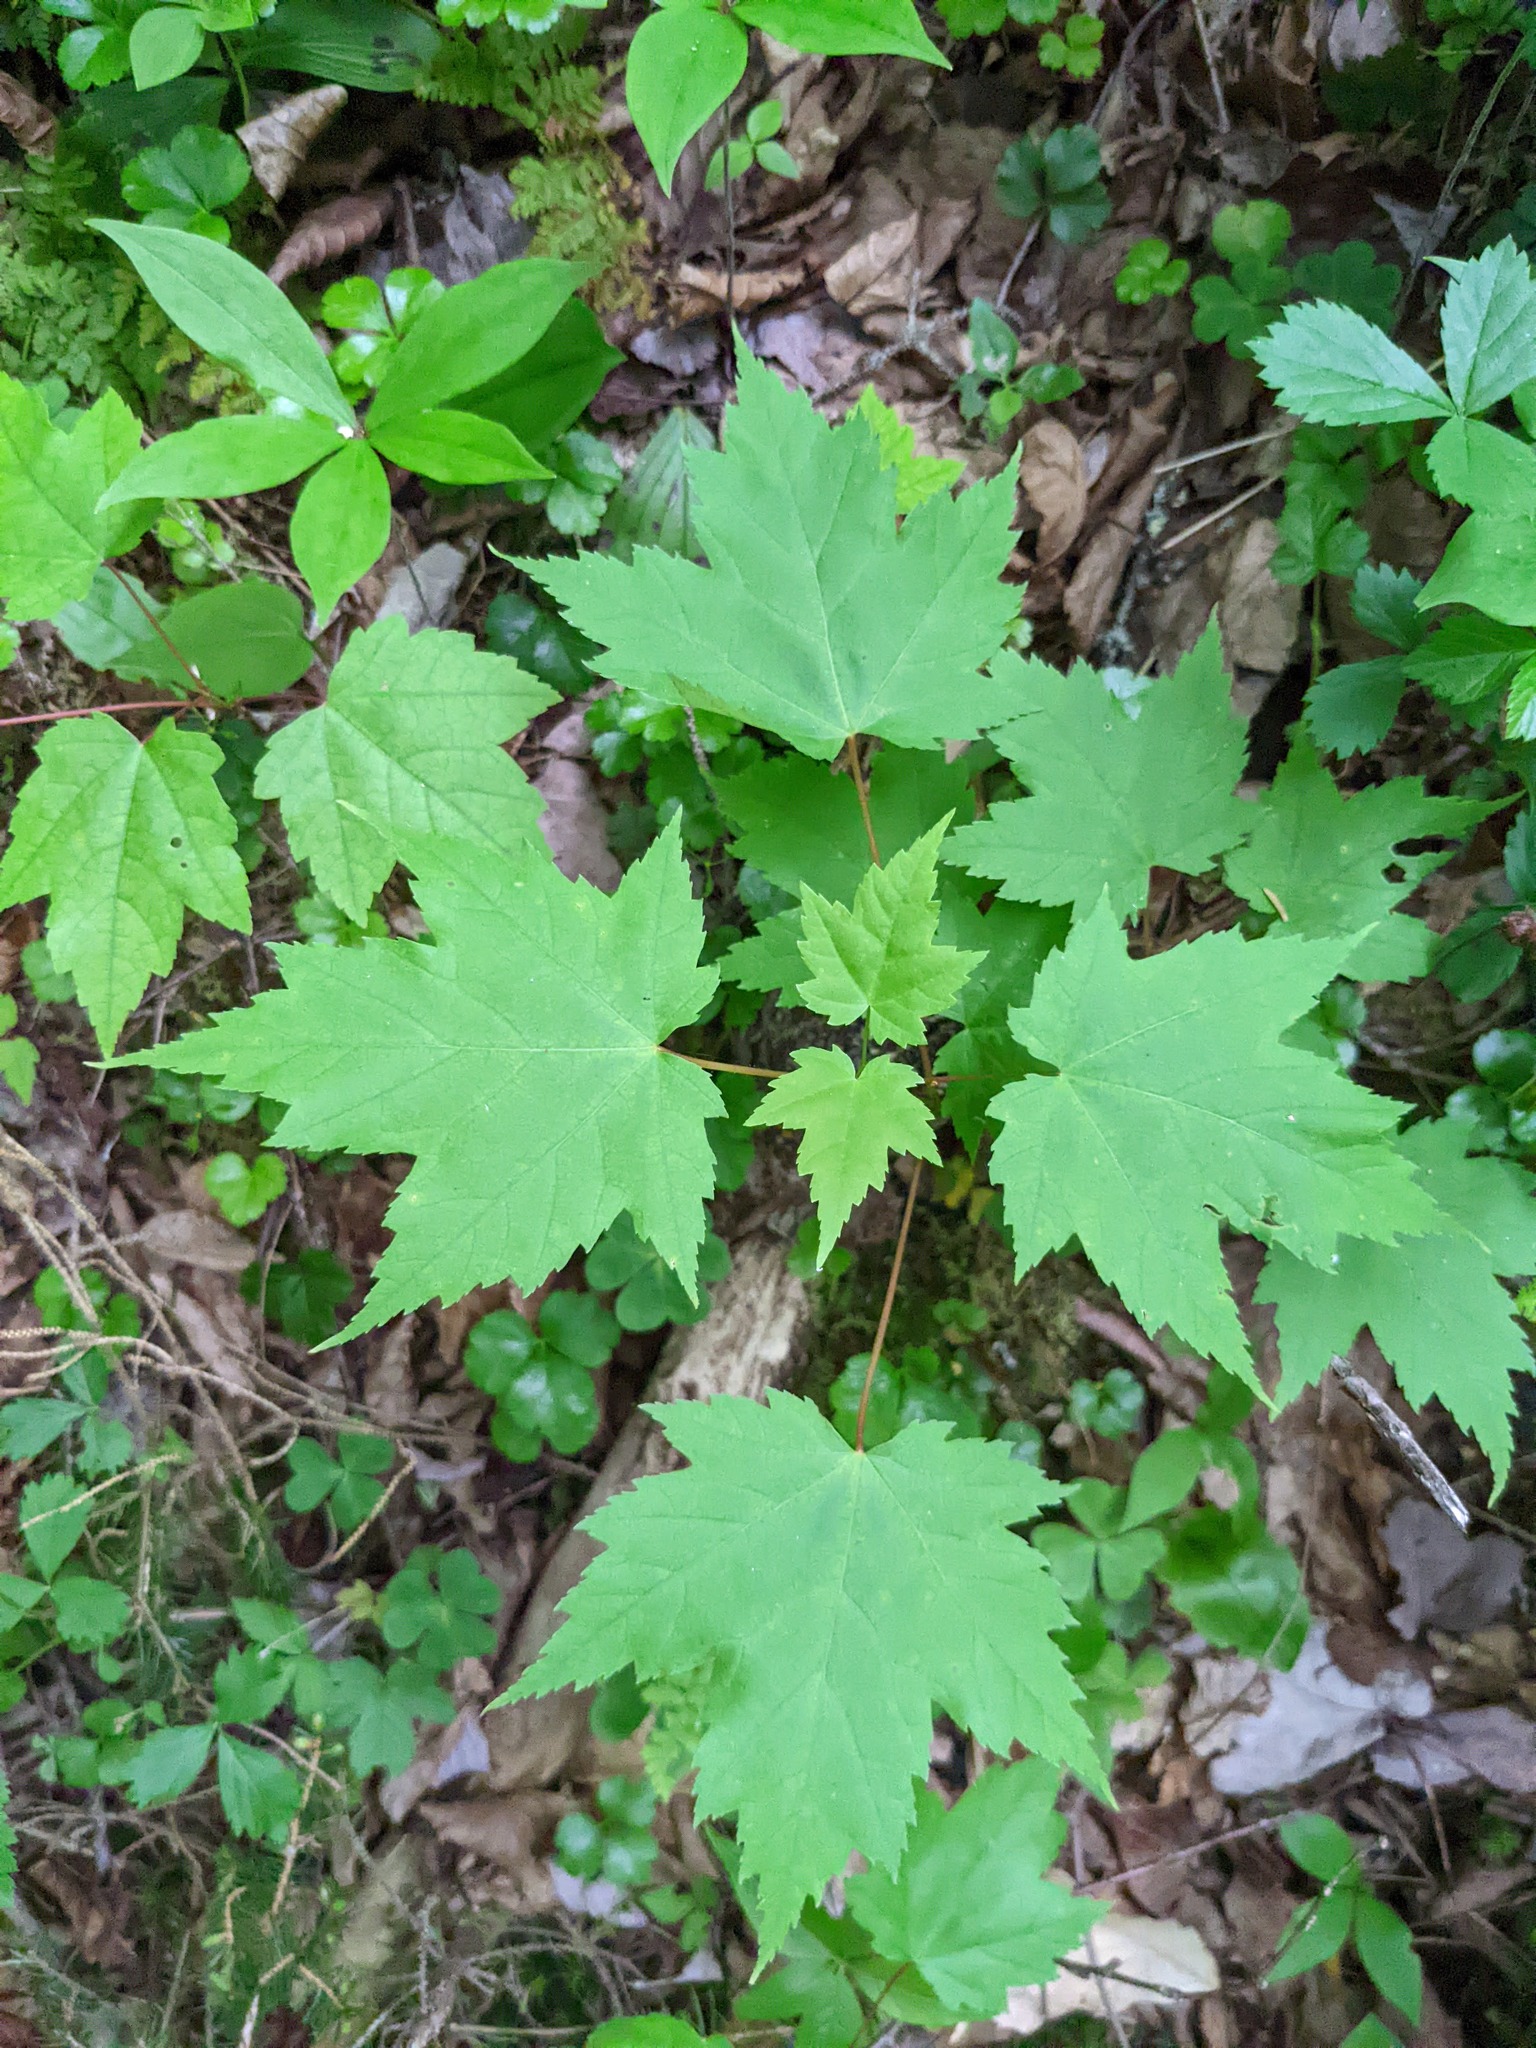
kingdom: Plantae
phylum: Tracheophyta
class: Magnoliopsida
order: Sapindales
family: Sapindaceae
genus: Acer
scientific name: Acer rubrum
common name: Red maple
